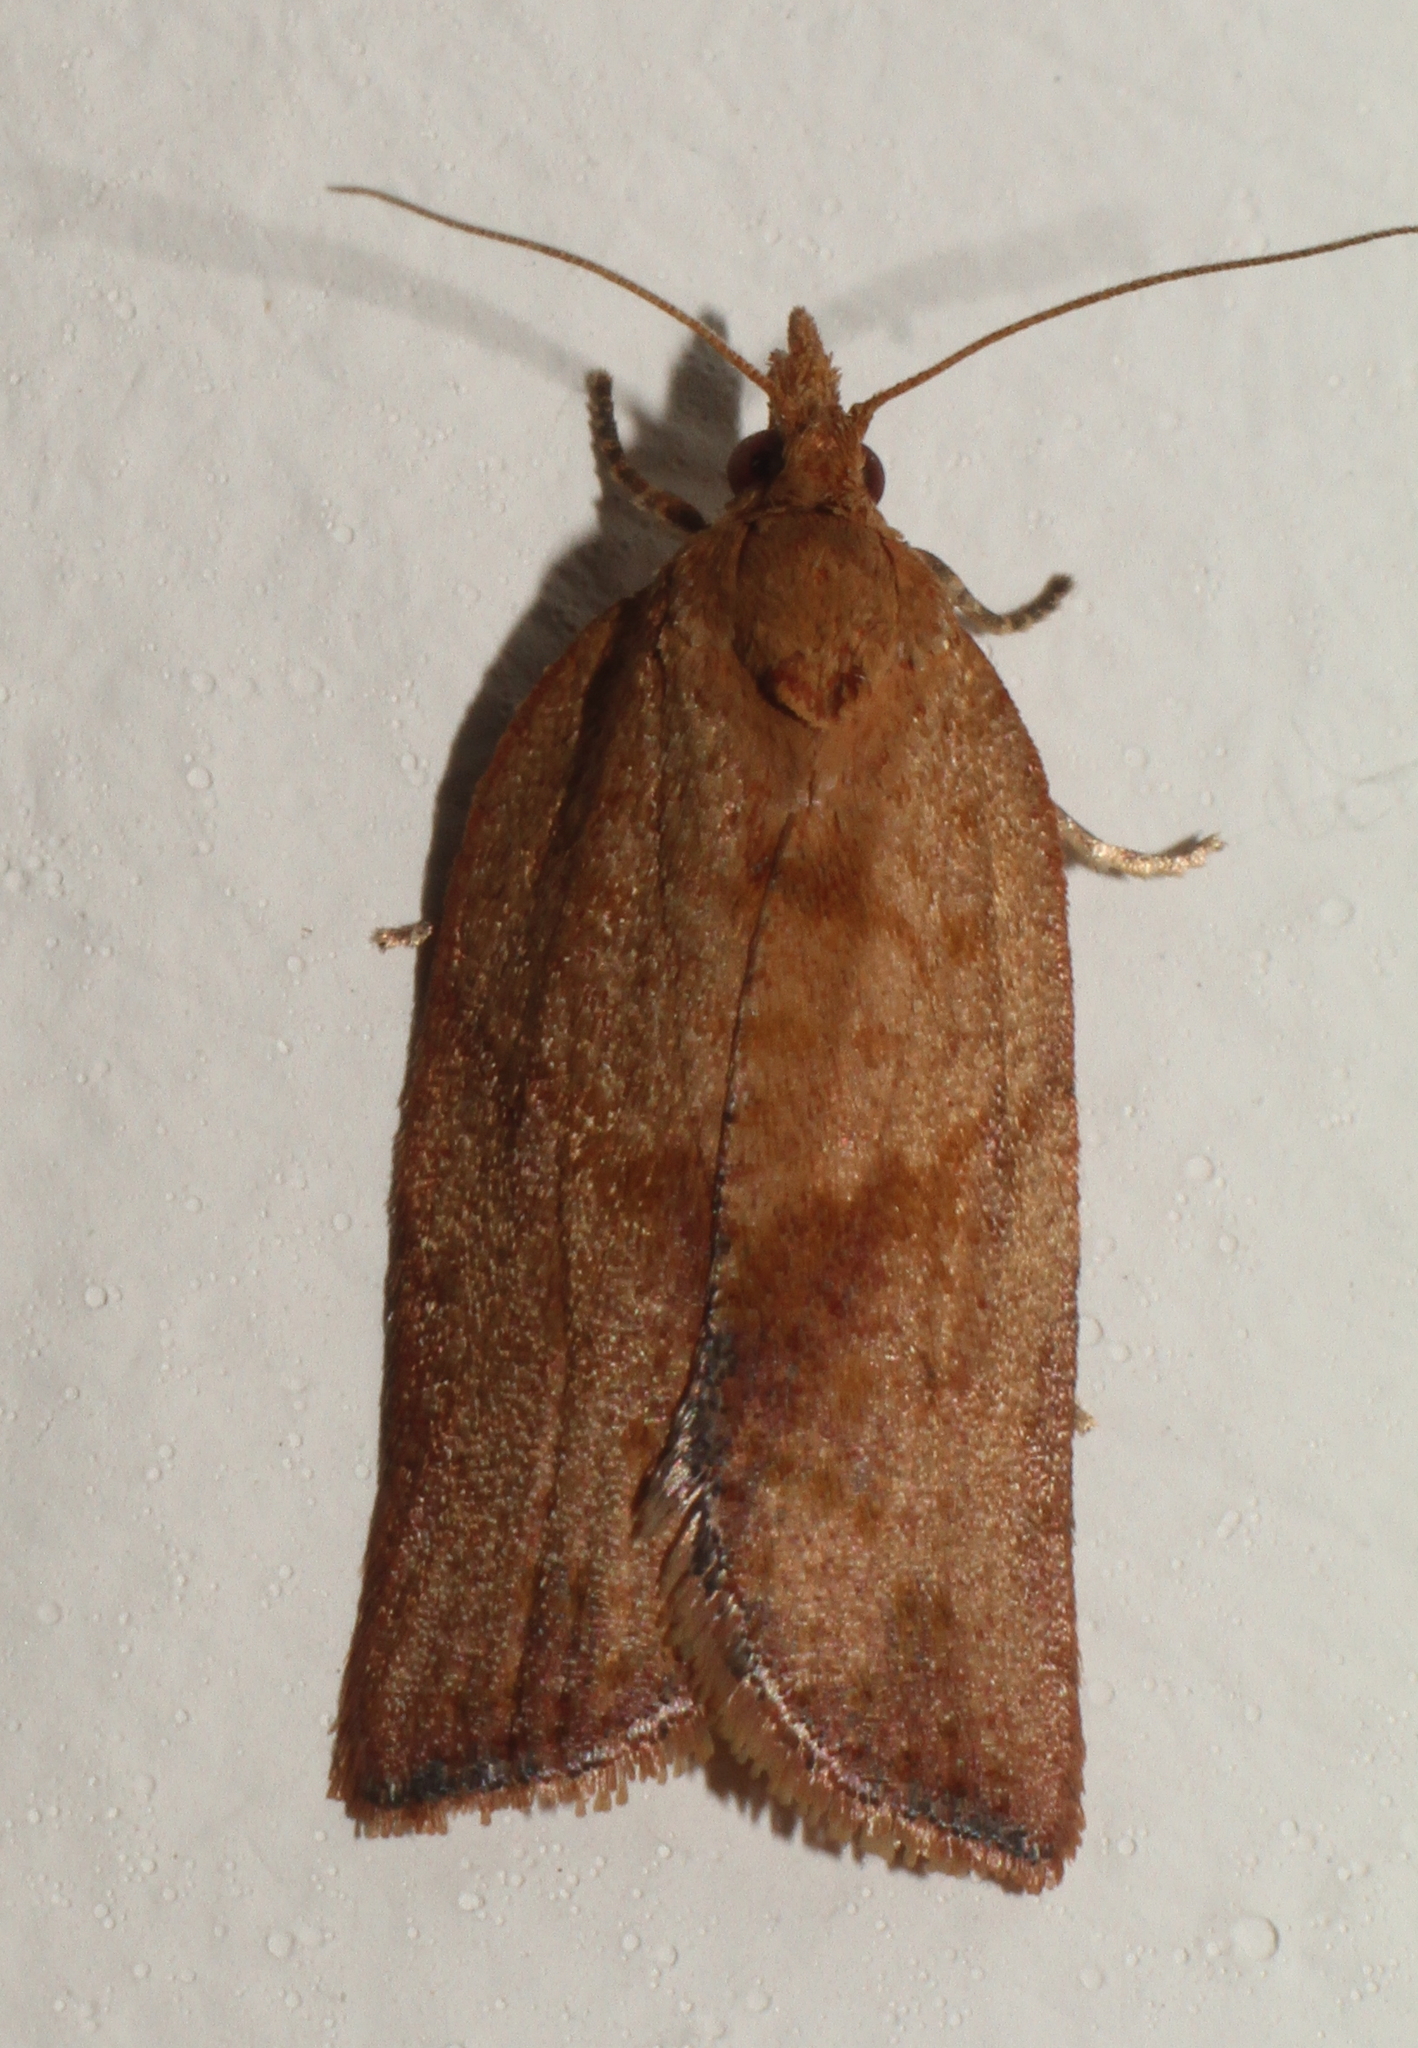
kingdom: Animalia
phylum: Arthropoda
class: Insecta
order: Lepidoptera
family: Tortricidae
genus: Epiphyas
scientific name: Epiphyas postvittana
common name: Light brown apple moth
